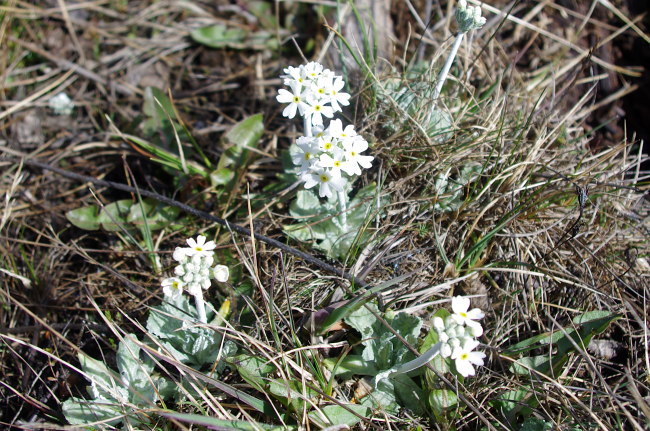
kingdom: Plantae
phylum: Tracheophyta
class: Magnoliopsida
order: Ericales
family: Primulaceae
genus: Primula
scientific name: Primula magellanica
